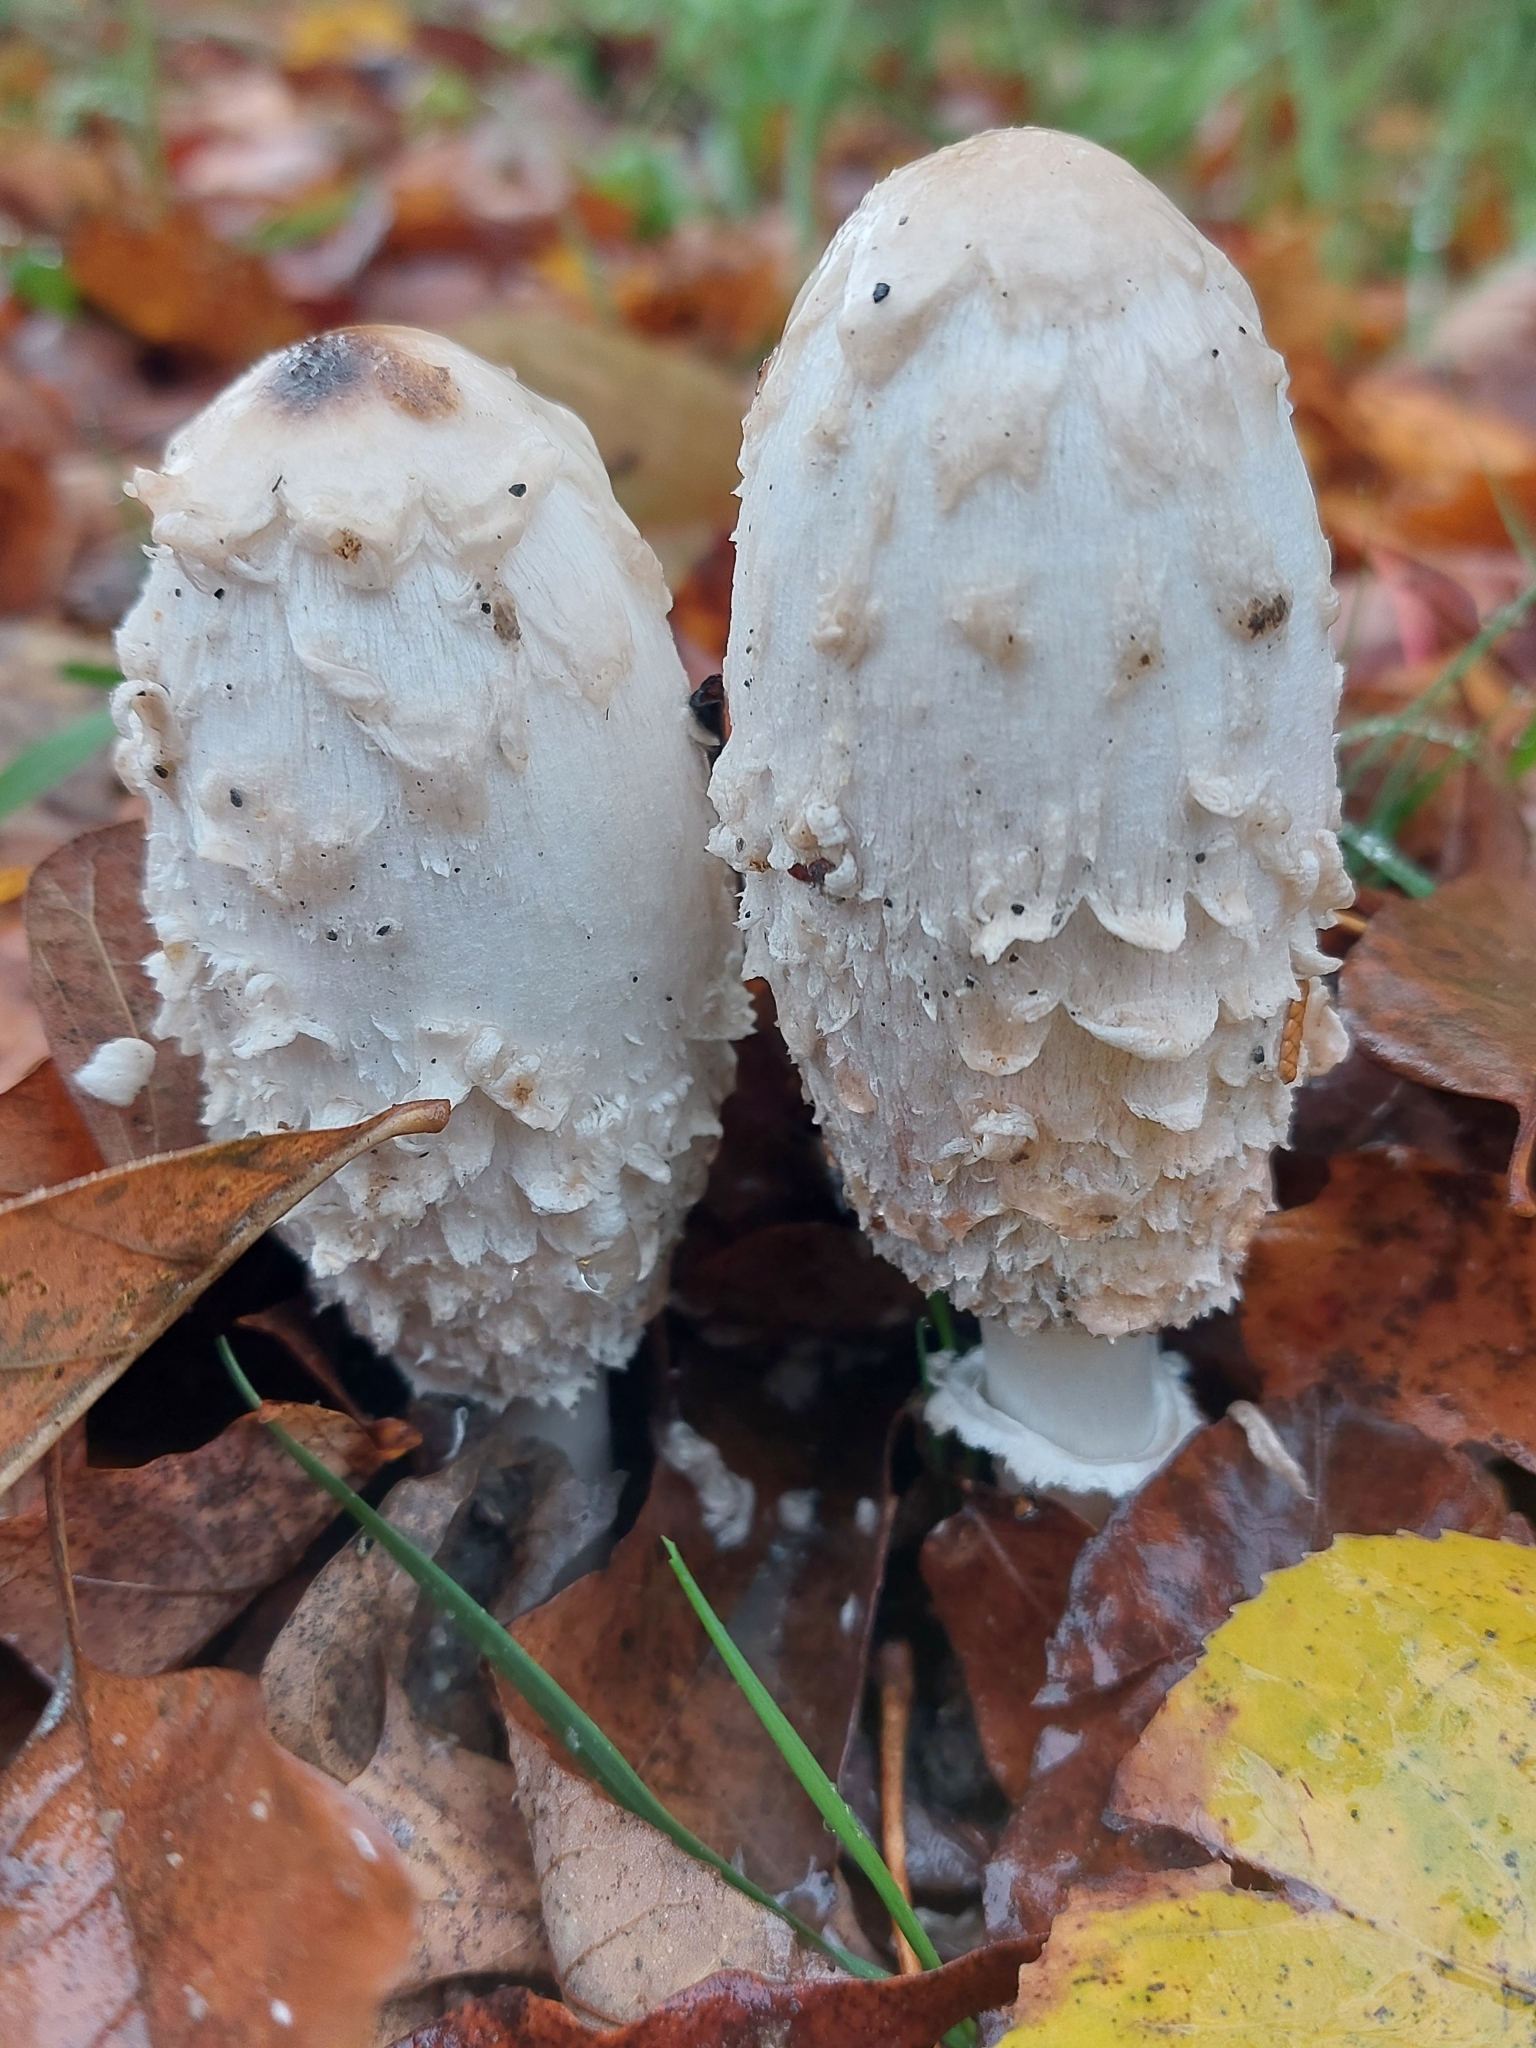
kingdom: Fungi
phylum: Basidiomycota
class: Agaricomycetes
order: Agaricales
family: Agaricaceae
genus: Coprinus
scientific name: Coprinus comatus
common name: Lawyer's wig
